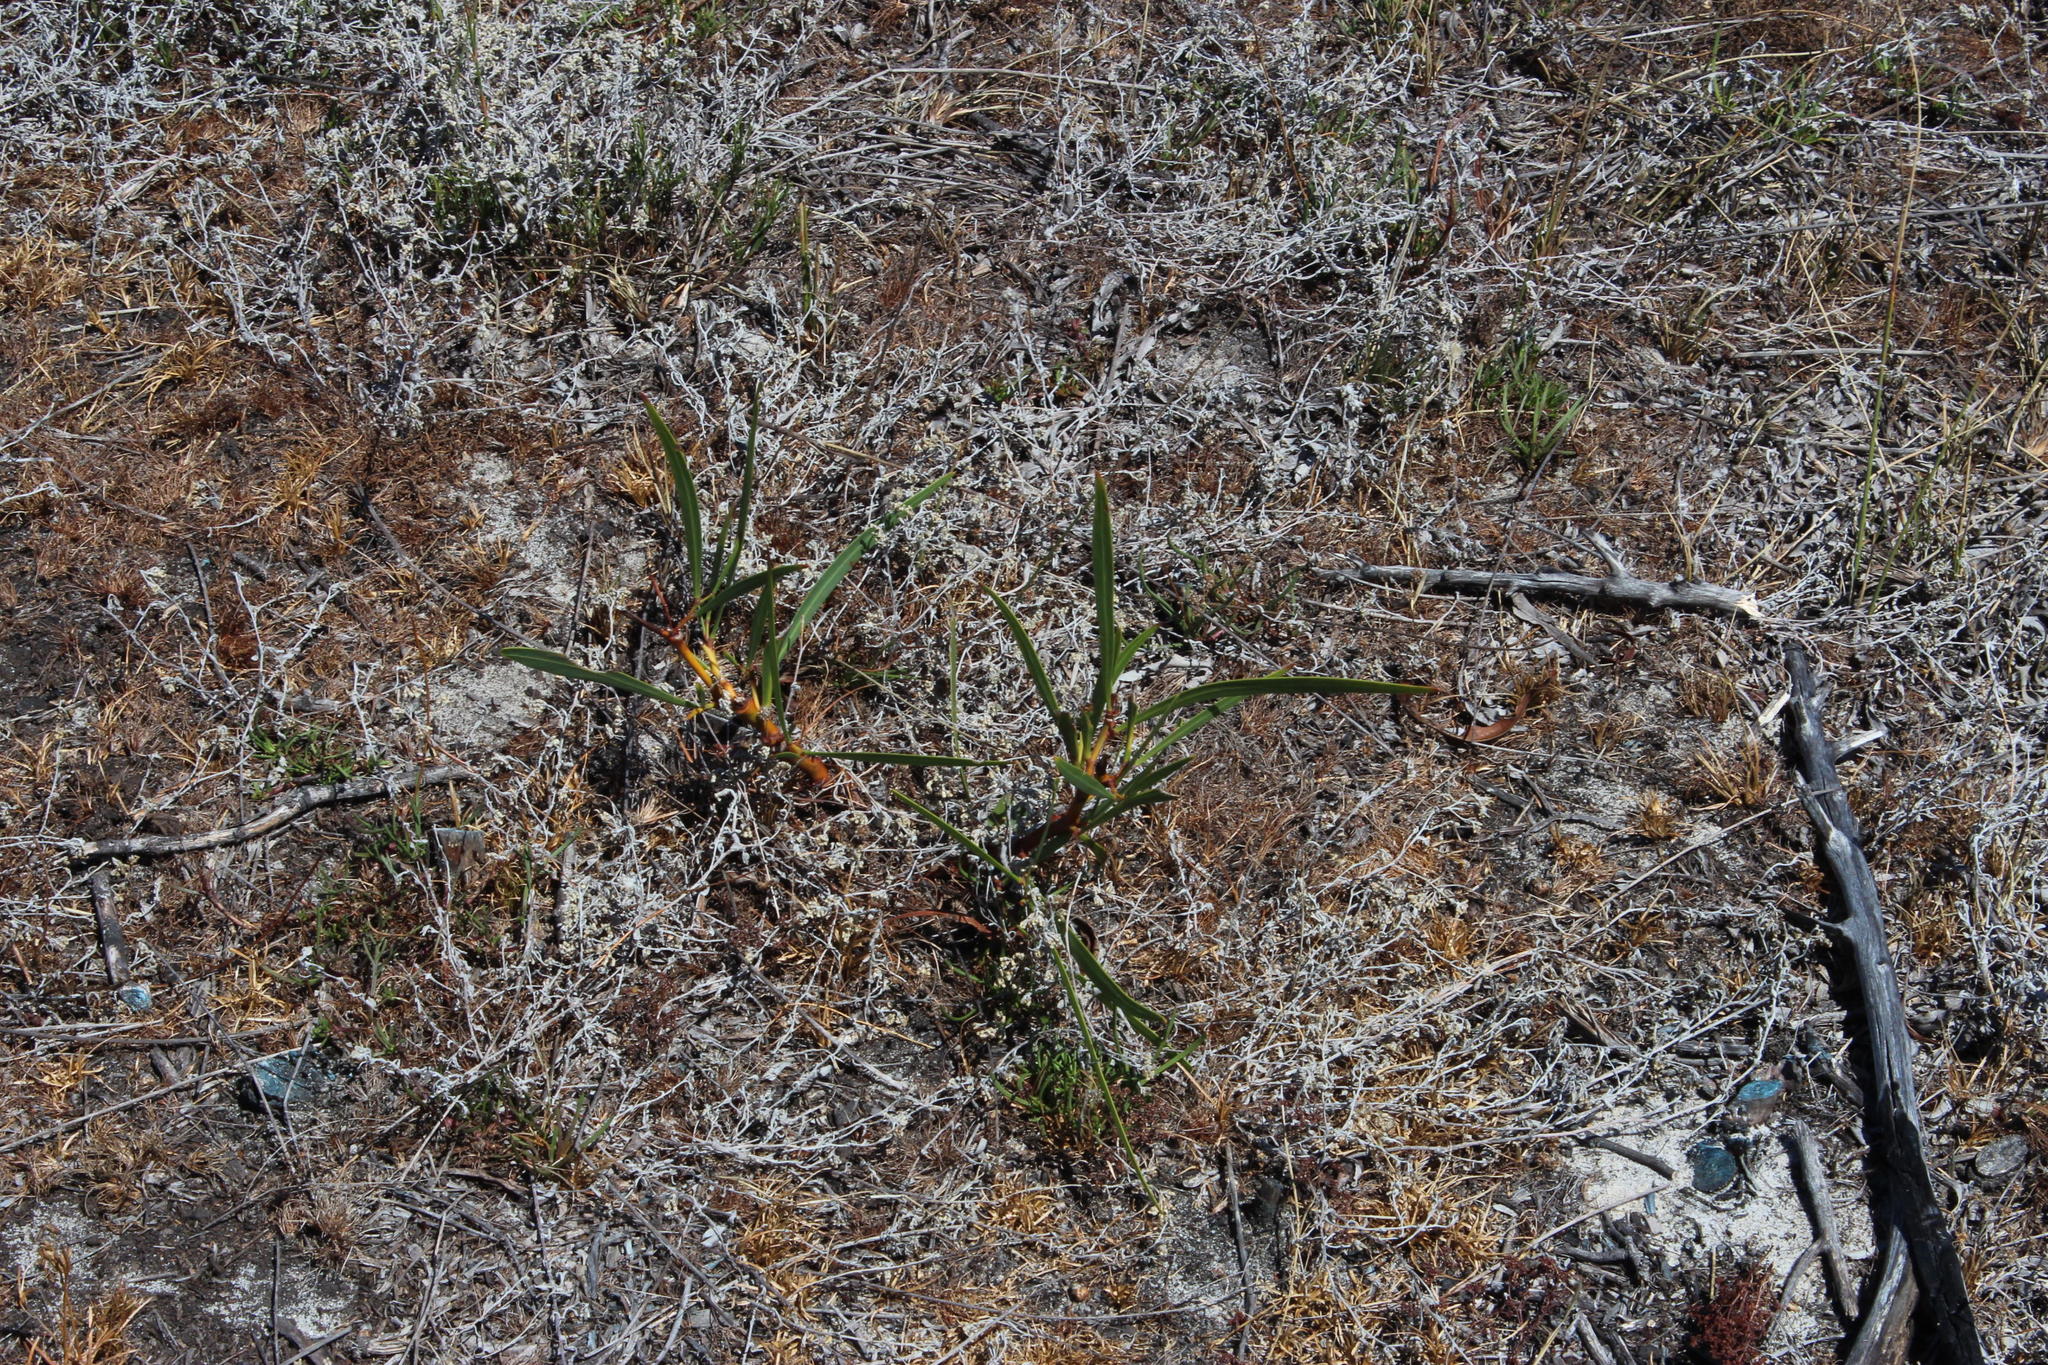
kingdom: Plantae
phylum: Tracheophyta
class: Magnoliopsida
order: Fabales
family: Fabaceae
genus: Acacia
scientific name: Acacia saligna
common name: Orange wattle
